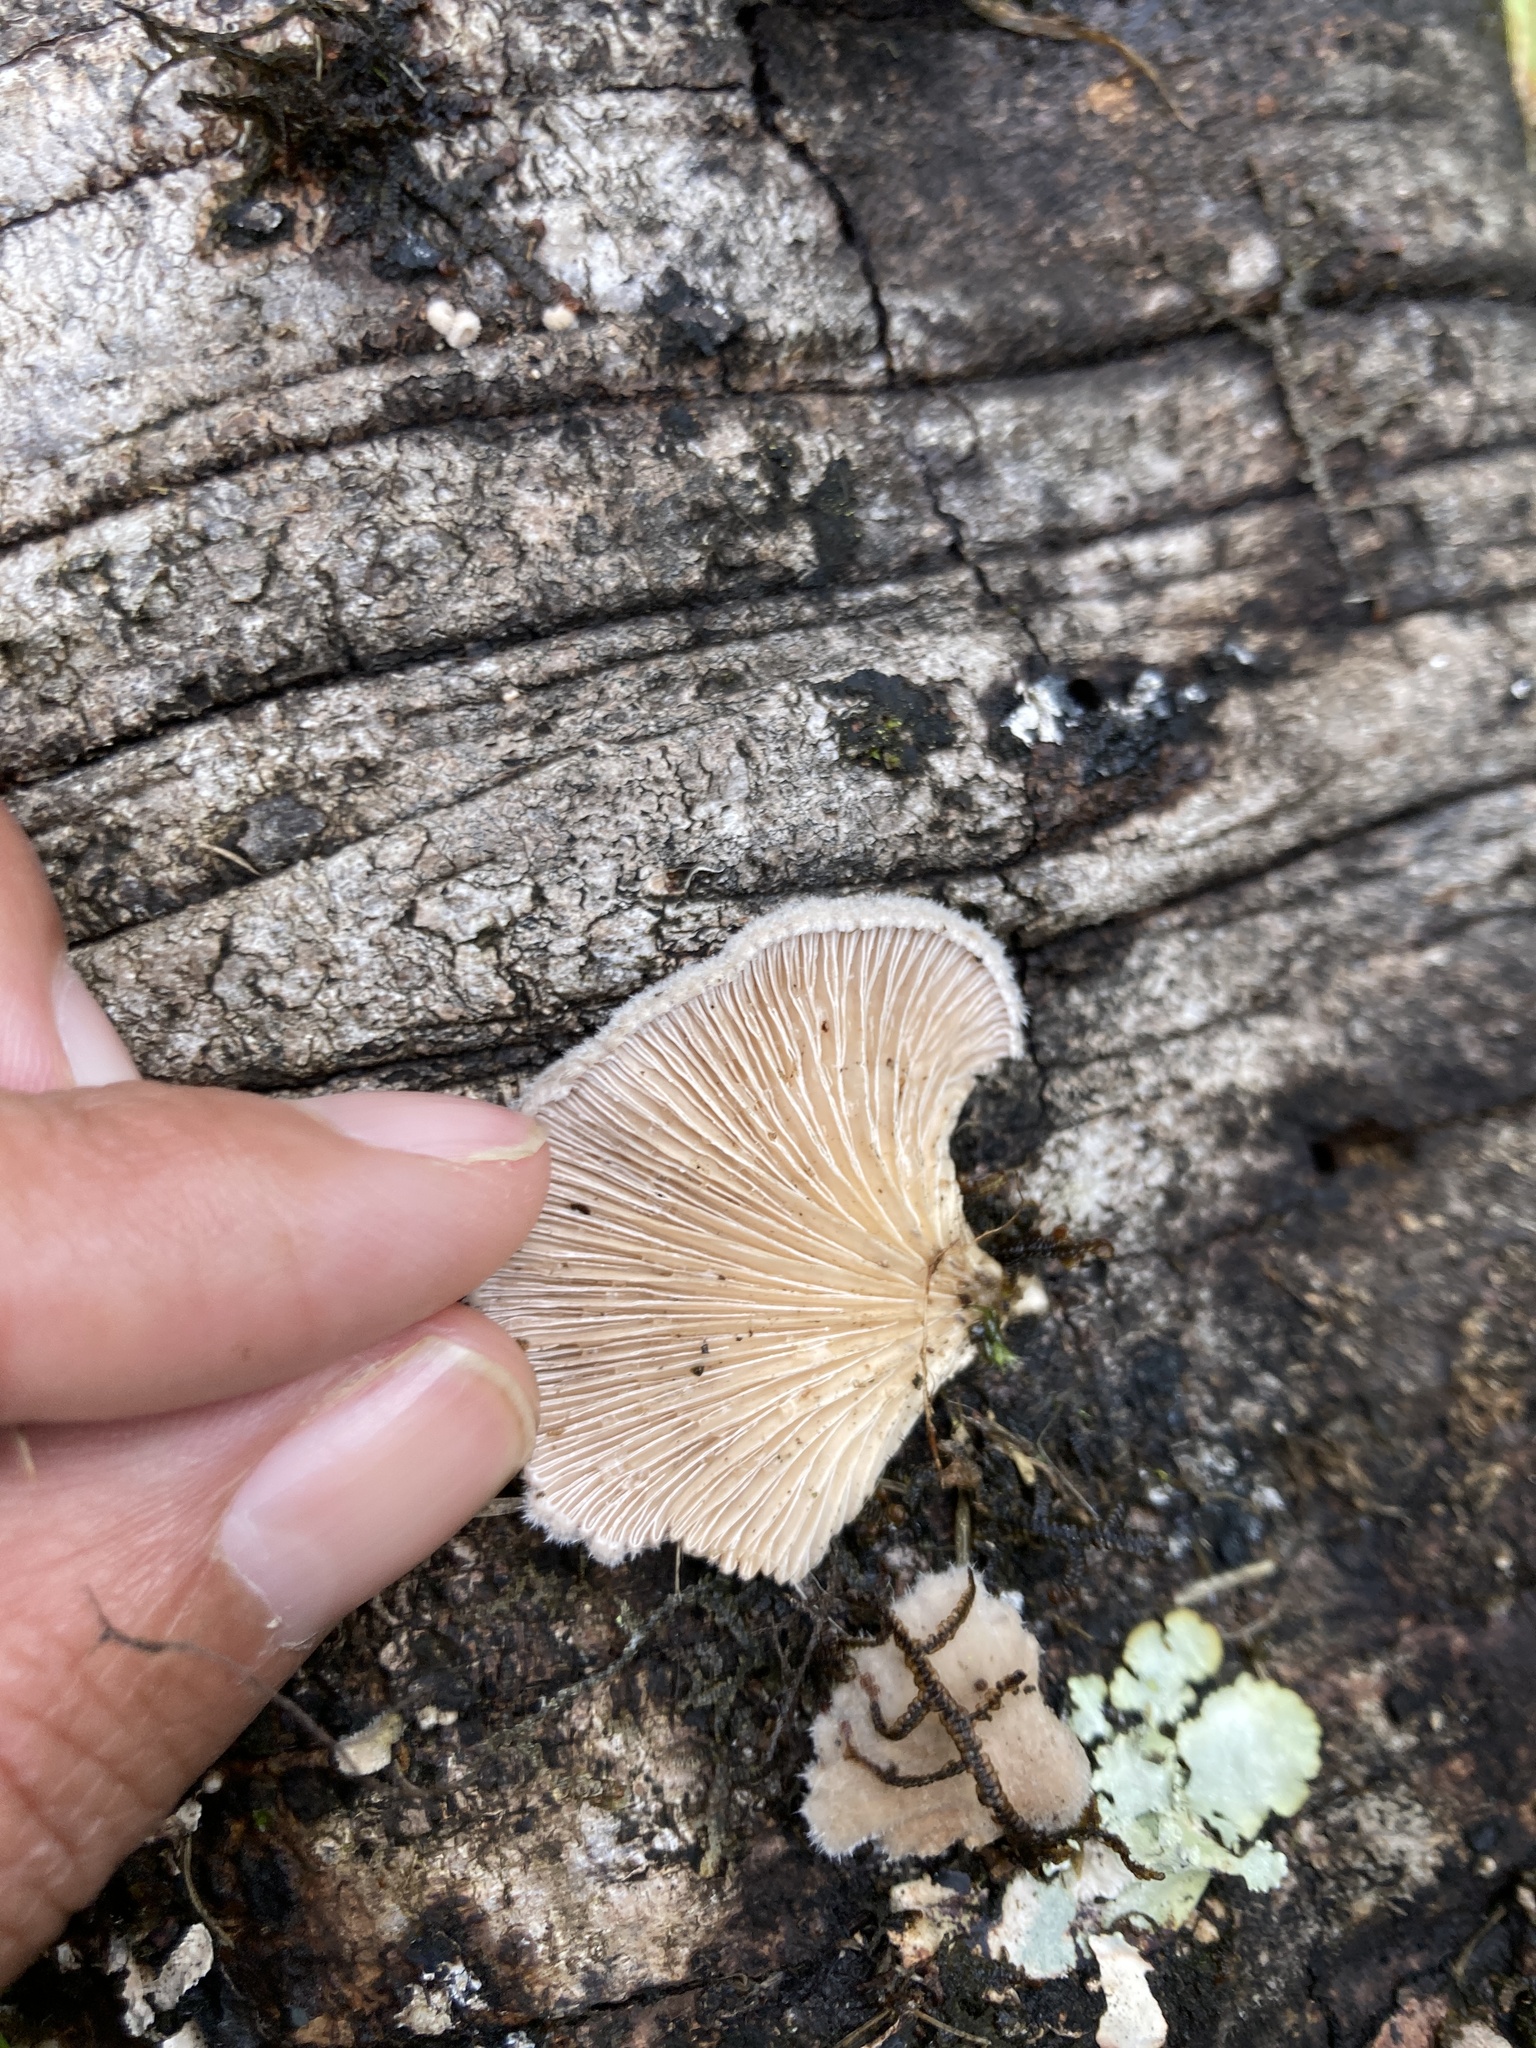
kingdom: Fungi
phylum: Basidiomycota
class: Agaricomycetes
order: Agaricales
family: Schizophyllaceae
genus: Schizophyllum
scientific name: Schizophyllum commune
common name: Common porecrust
